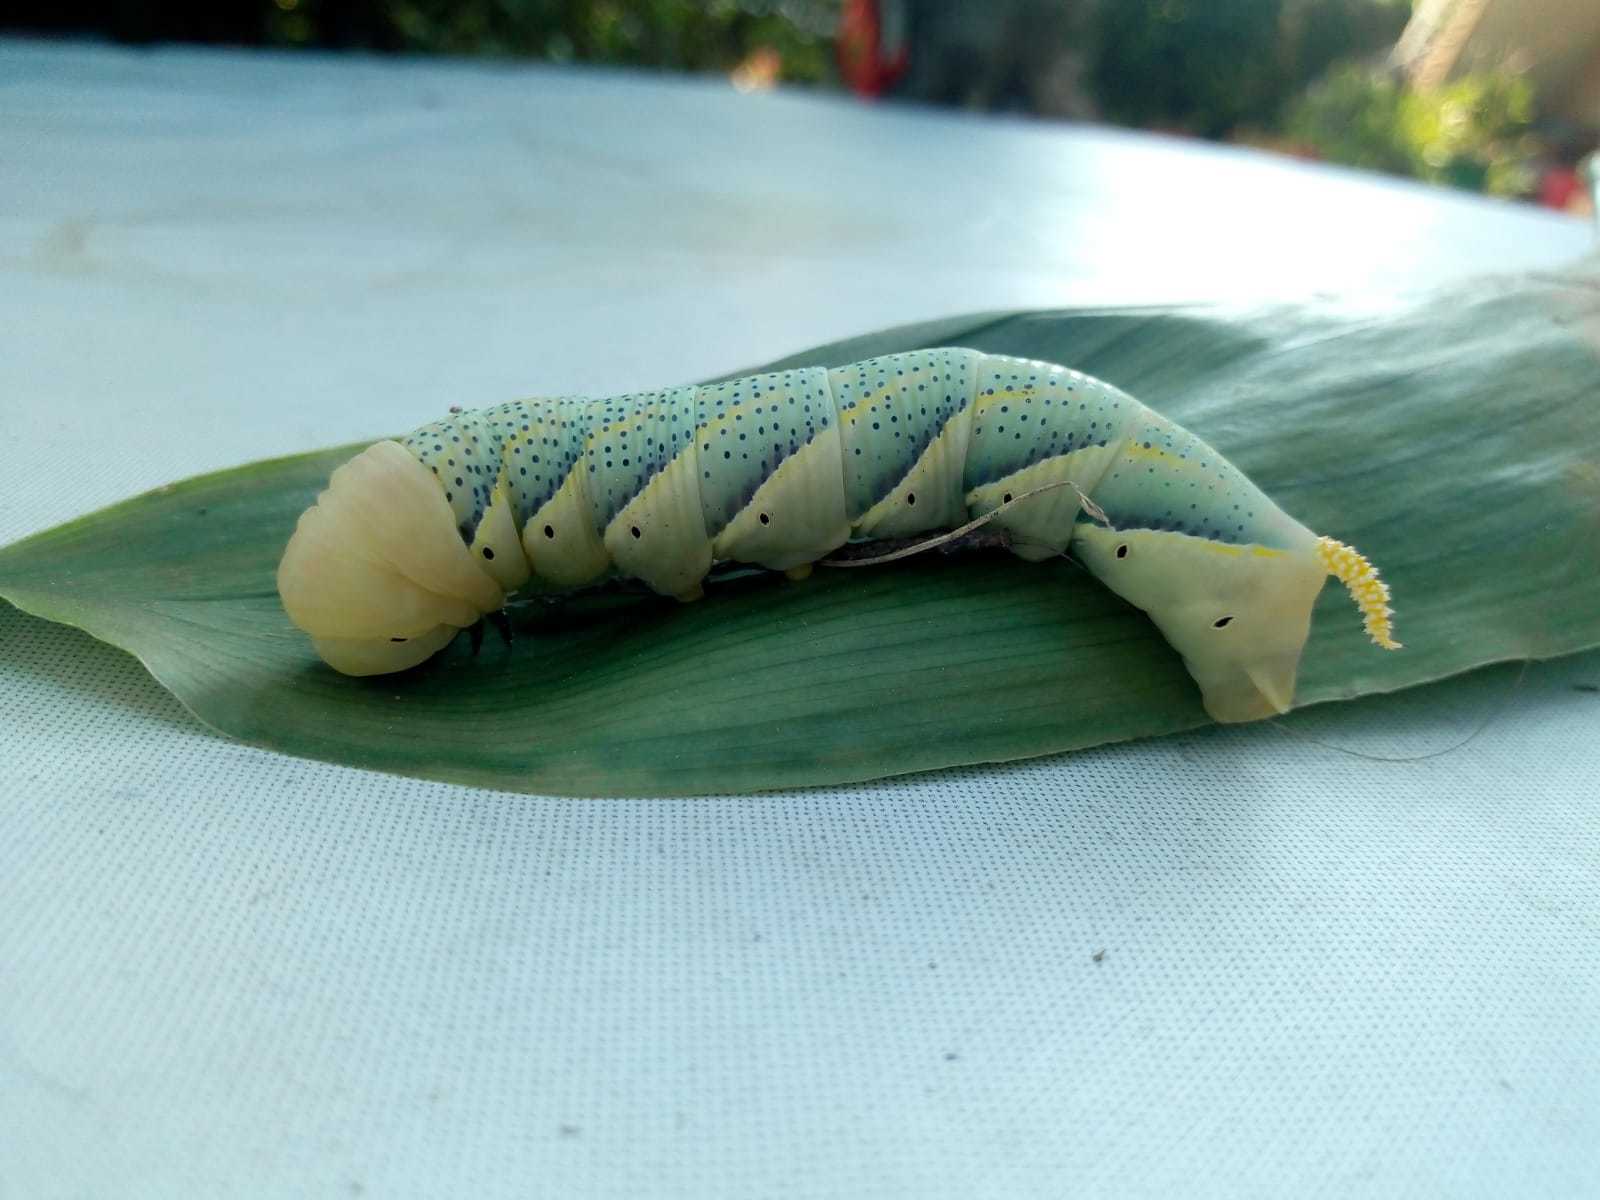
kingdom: Animalia
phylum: Arthropoda
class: Insecta
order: Lepidoptera
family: Sphingidae
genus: Acherontia
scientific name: Acherontia atropos
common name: Death's-head hawk moth
